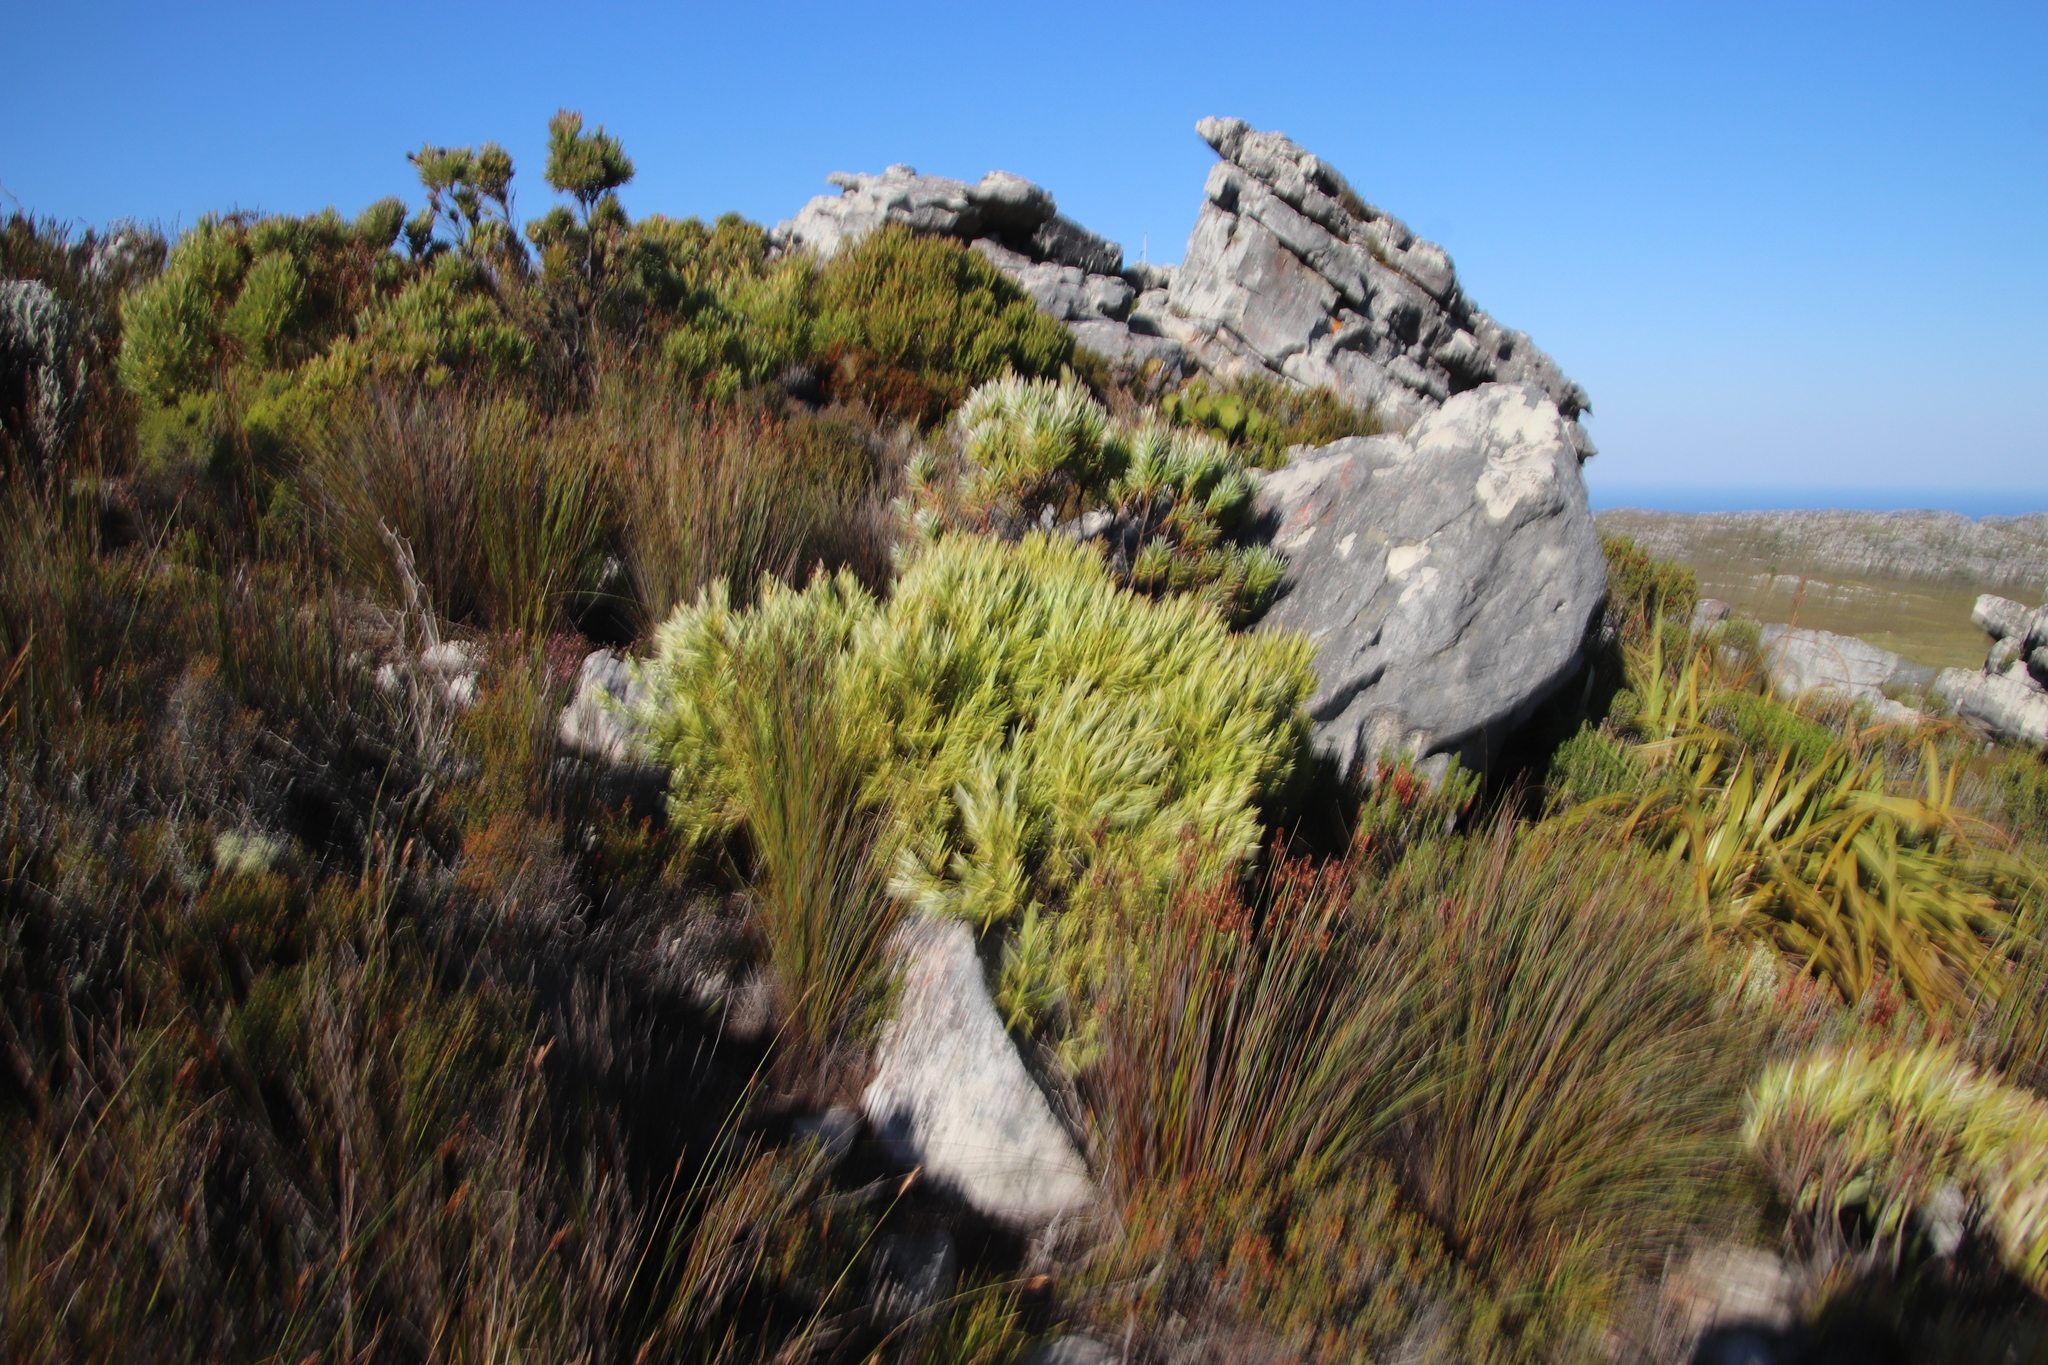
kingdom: Plantae
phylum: Tracheophyta
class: Magnoliopsida
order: Proteales
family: Proteaceae
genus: Leucadendron
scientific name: Leucadendron xanthoconus
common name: Sickle-leaf conebush
